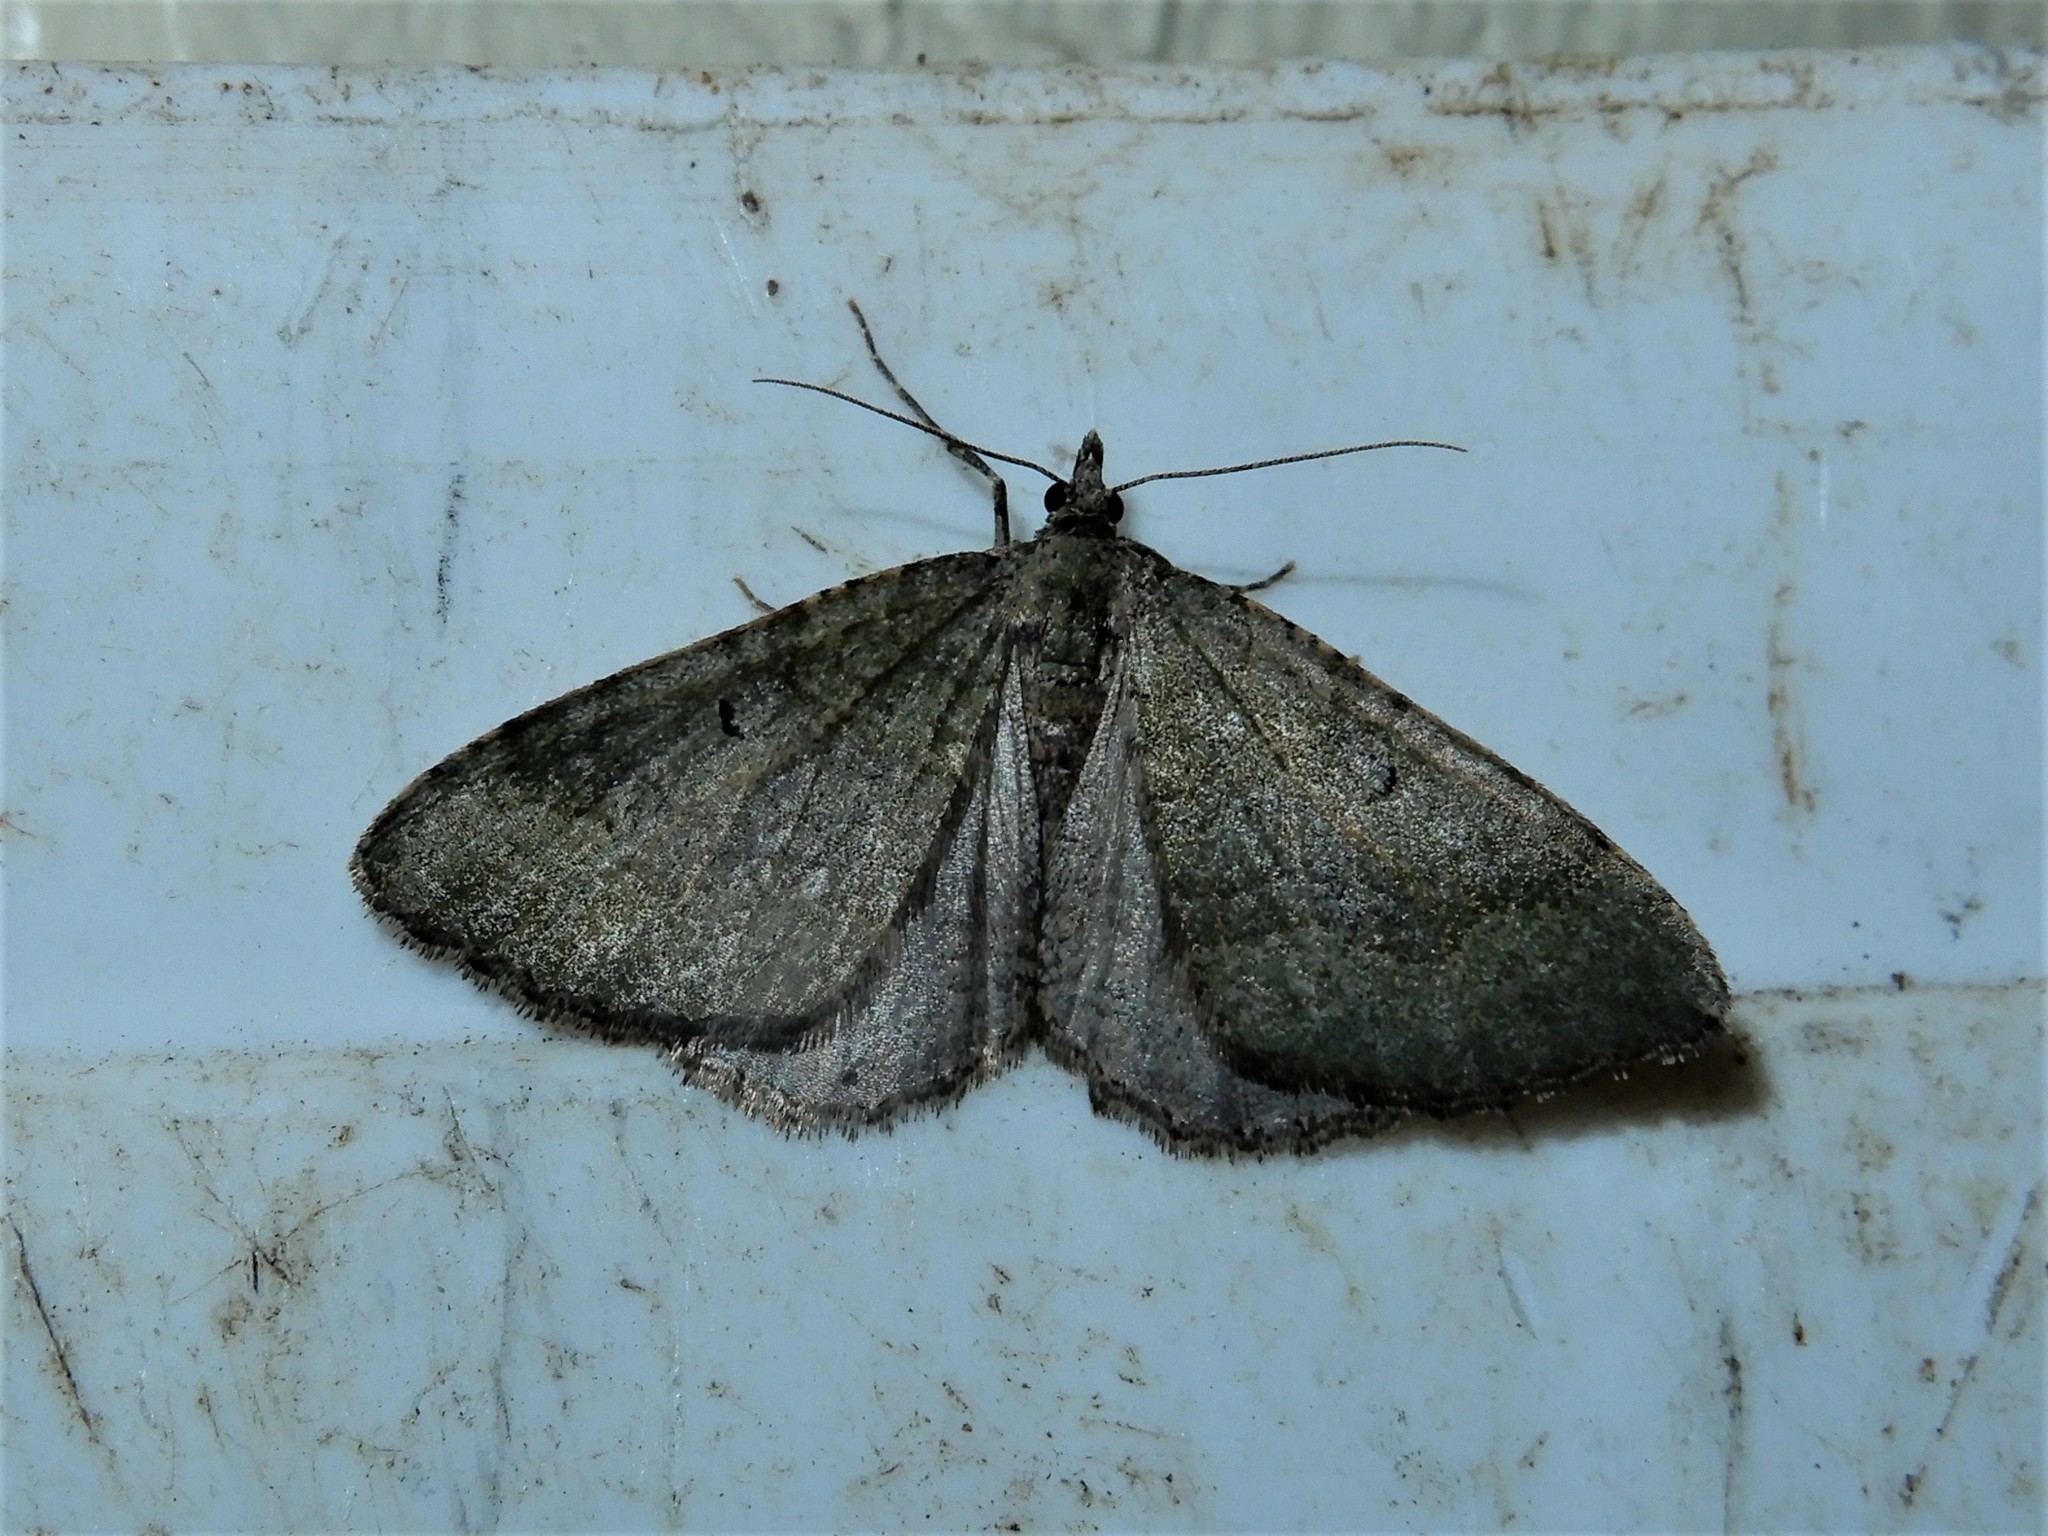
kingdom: Animalia
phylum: Arthropoda
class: Insecta
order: Lepidoptera
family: Geometridae
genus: Epyaxa
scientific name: Epyaxa rosearia
